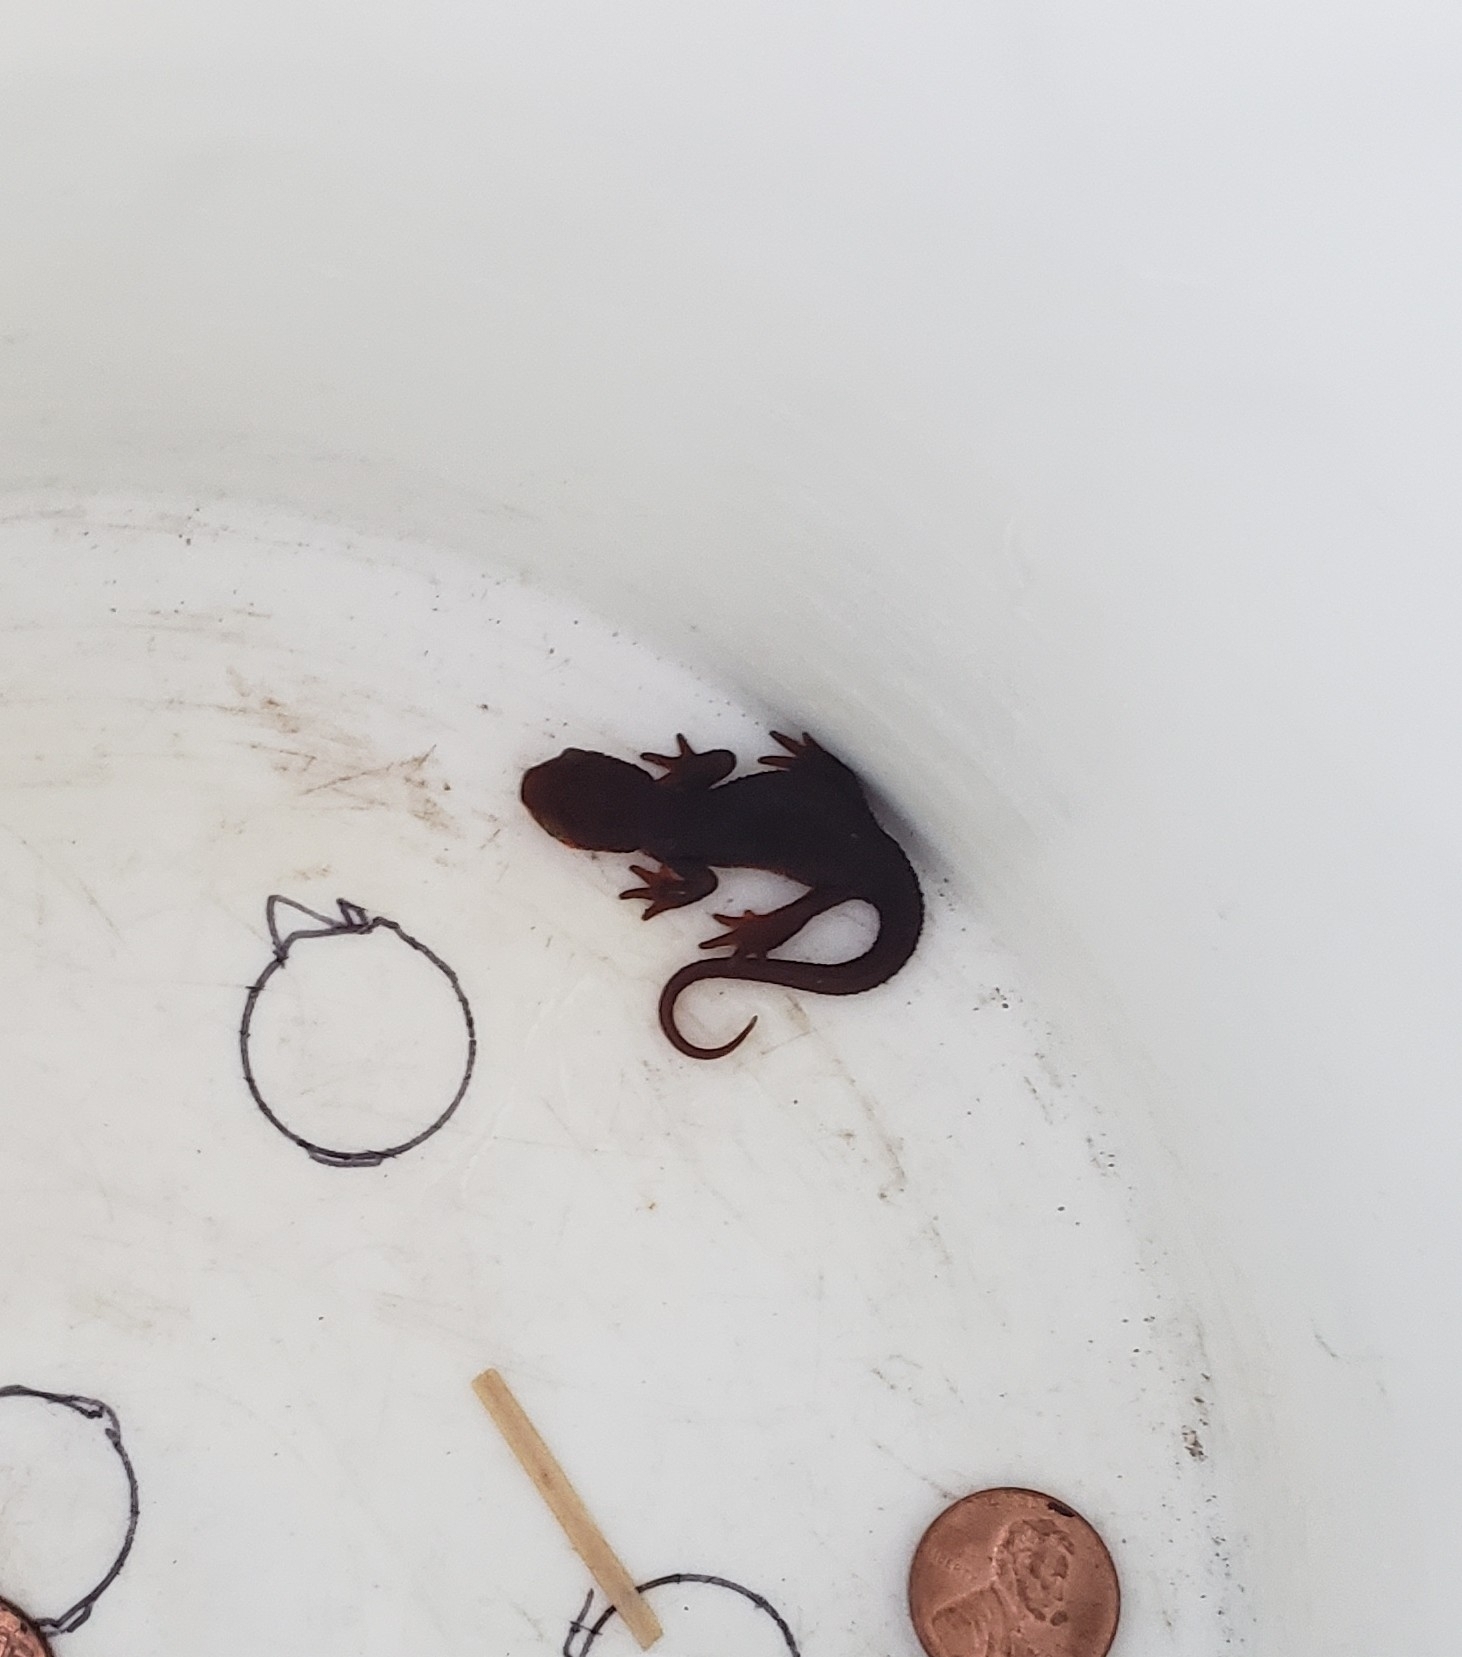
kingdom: Animalia
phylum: Chordata
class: Amphibia
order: Caudata
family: Salamandridae
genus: Taricha
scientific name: Taricha torosa
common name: California newt
